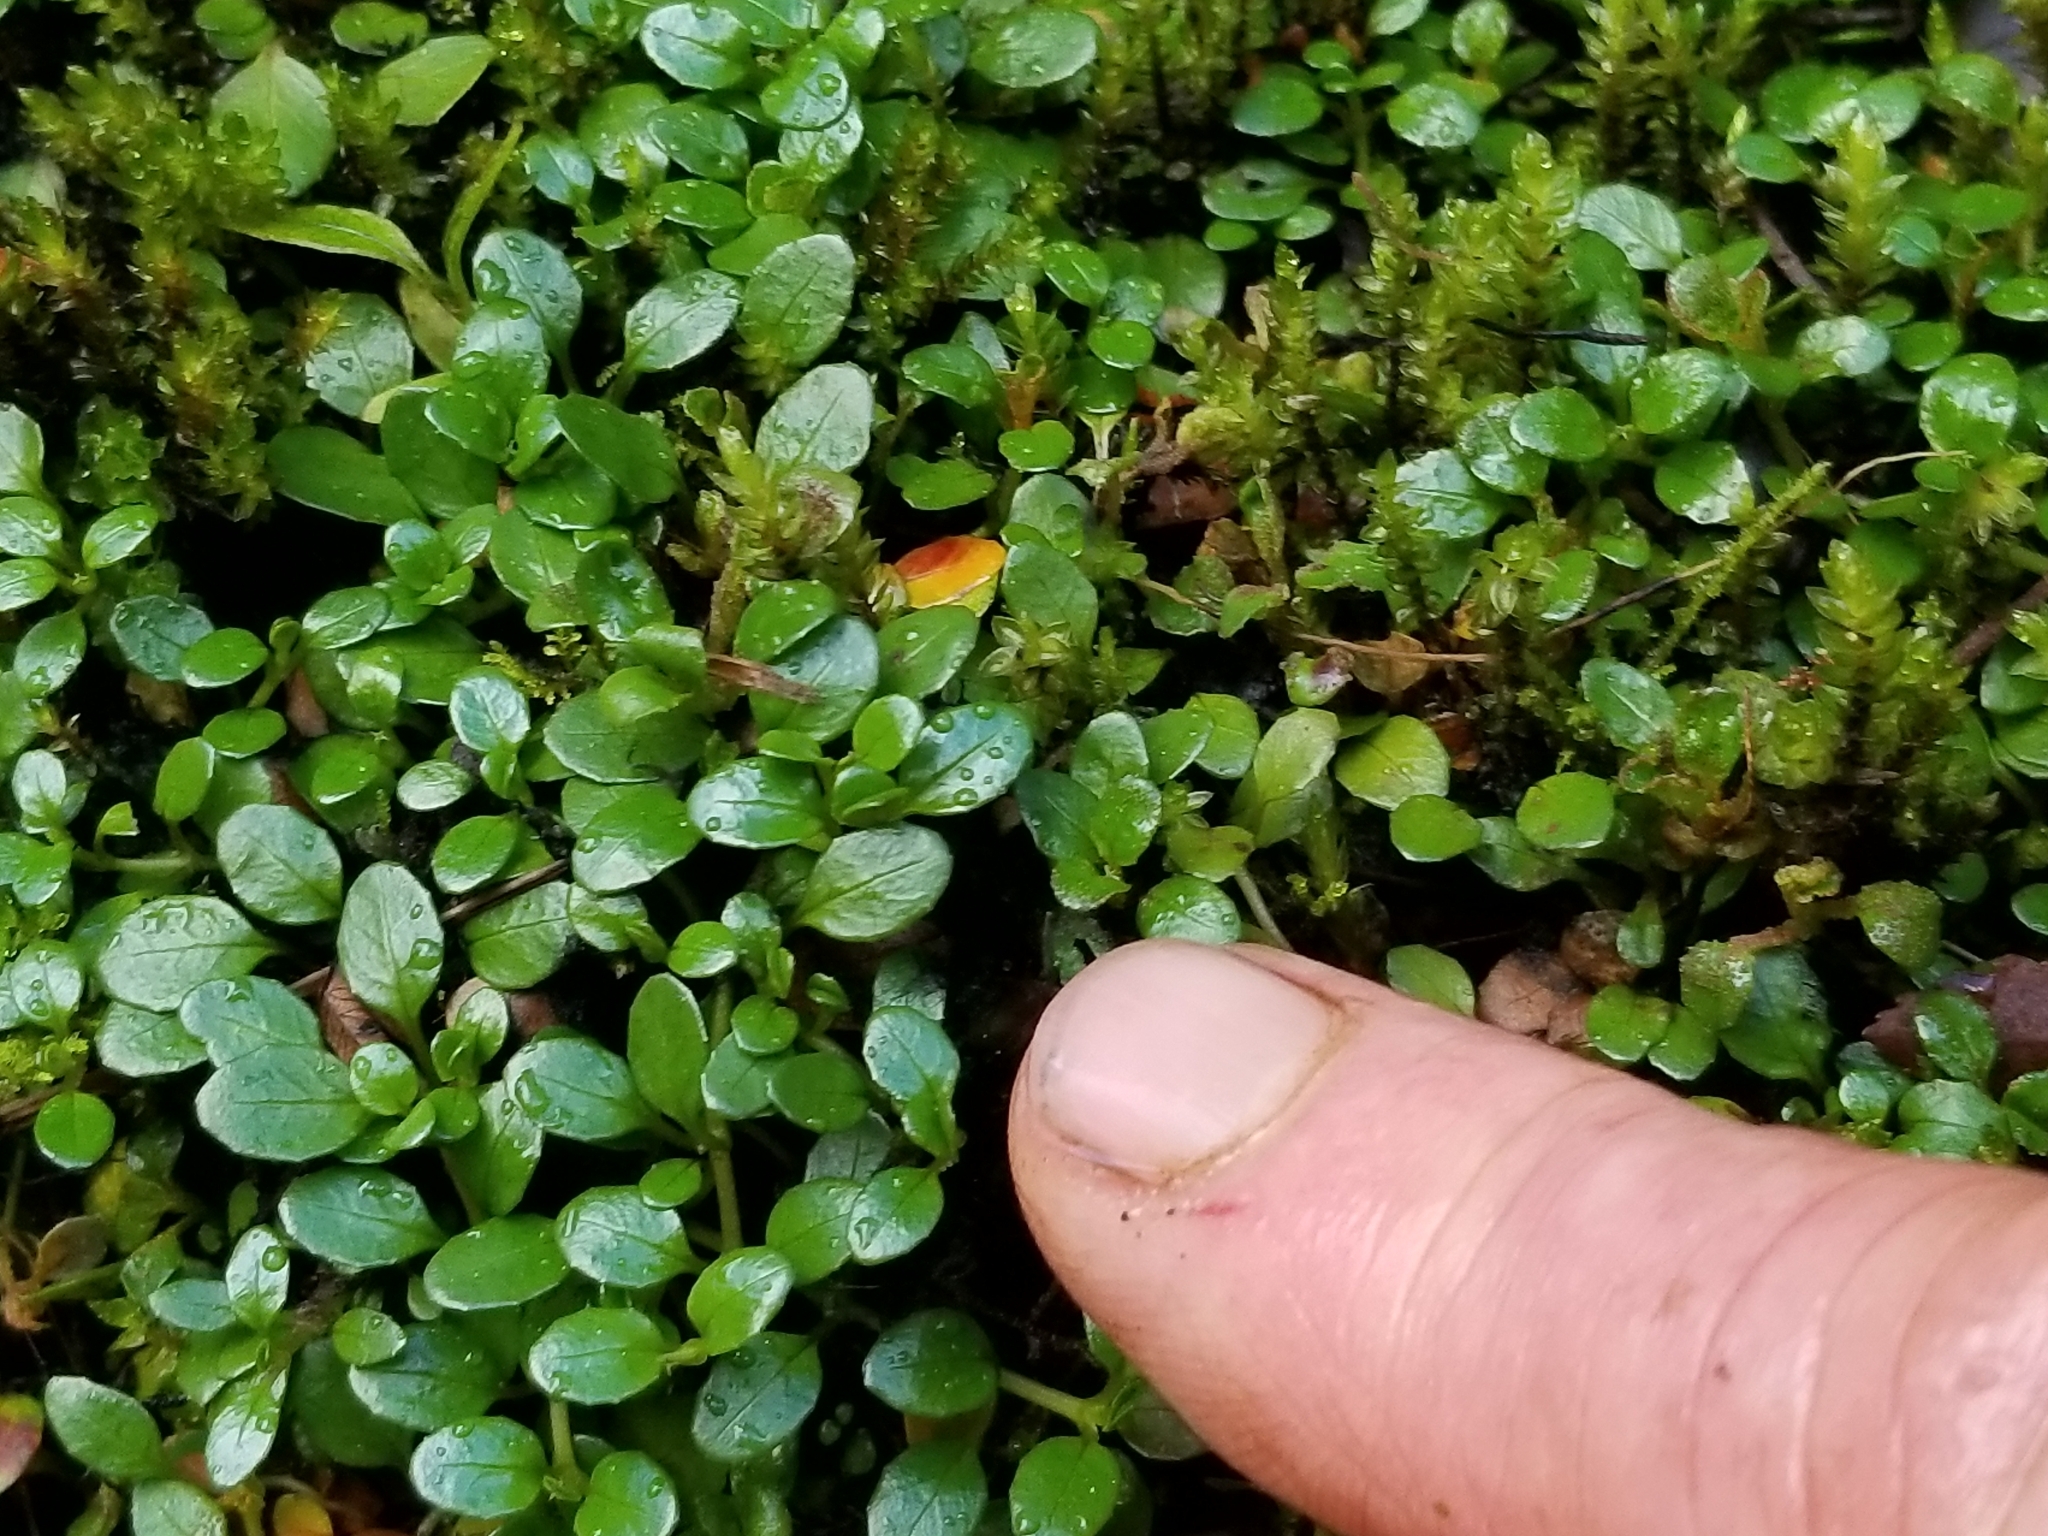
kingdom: Plantae
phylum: Tracheophyta
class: Magnoliopsida
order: Myrtales
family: Onagraceae
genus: Epilobium
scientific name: Epilobium brunnescens
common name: New zealand willowherb
